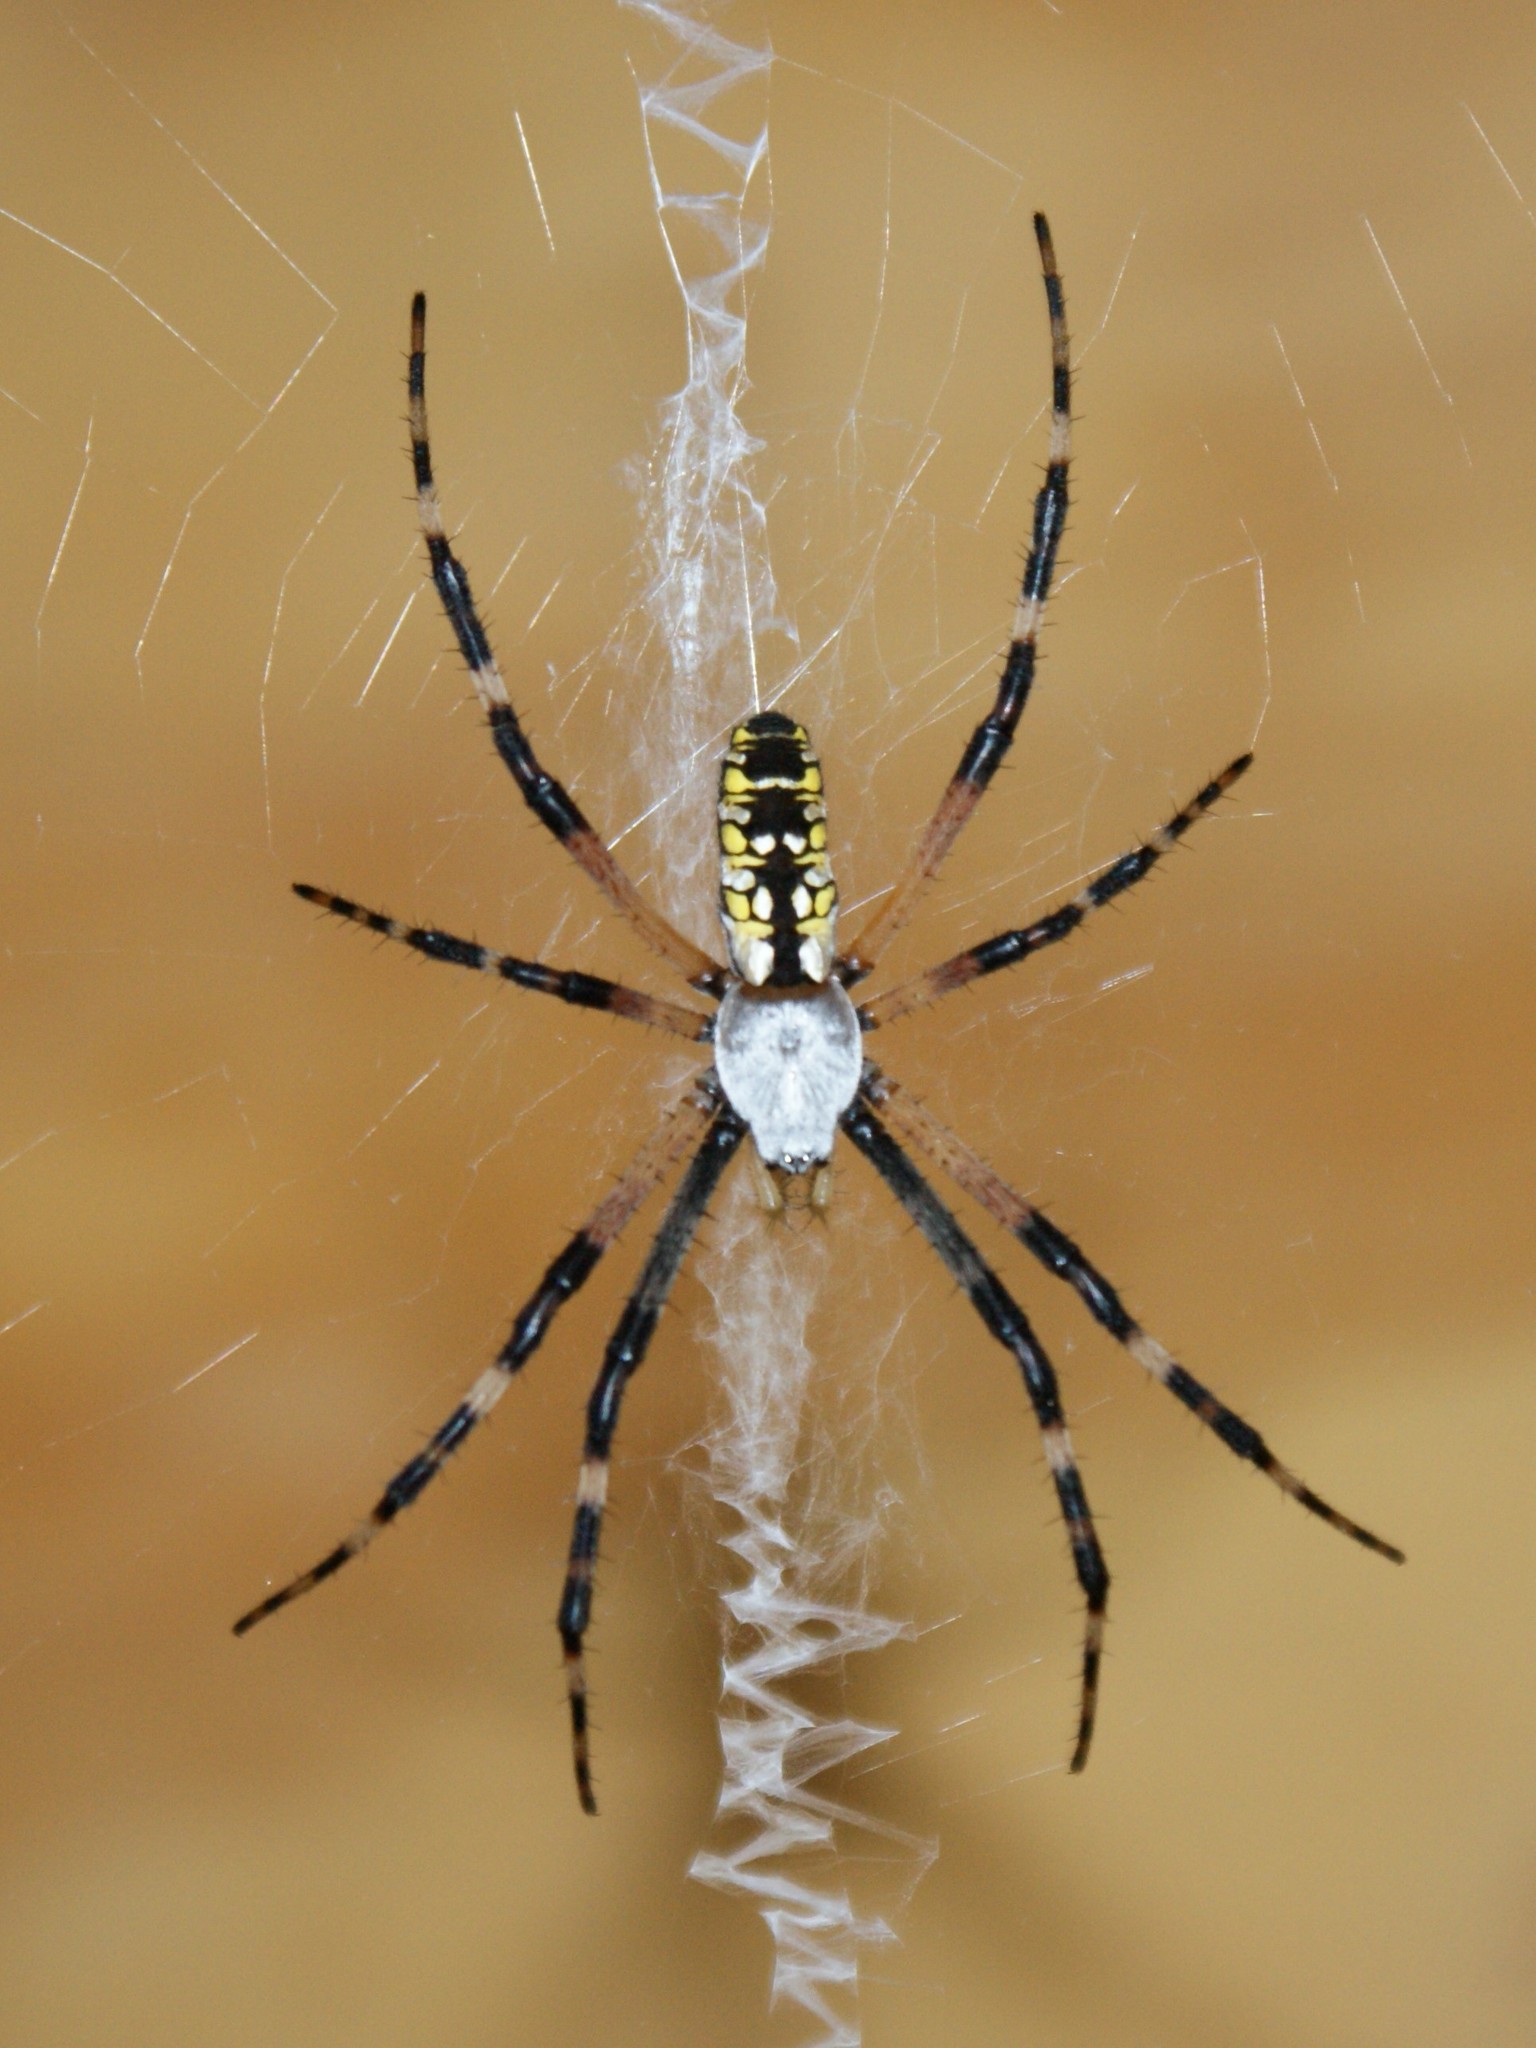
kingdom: Animalia
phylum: Arthropoda
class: Arachnida
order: Araneae
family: Araneidae
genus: Argiope
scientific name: Argiope aurantia
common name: Orb weavers
